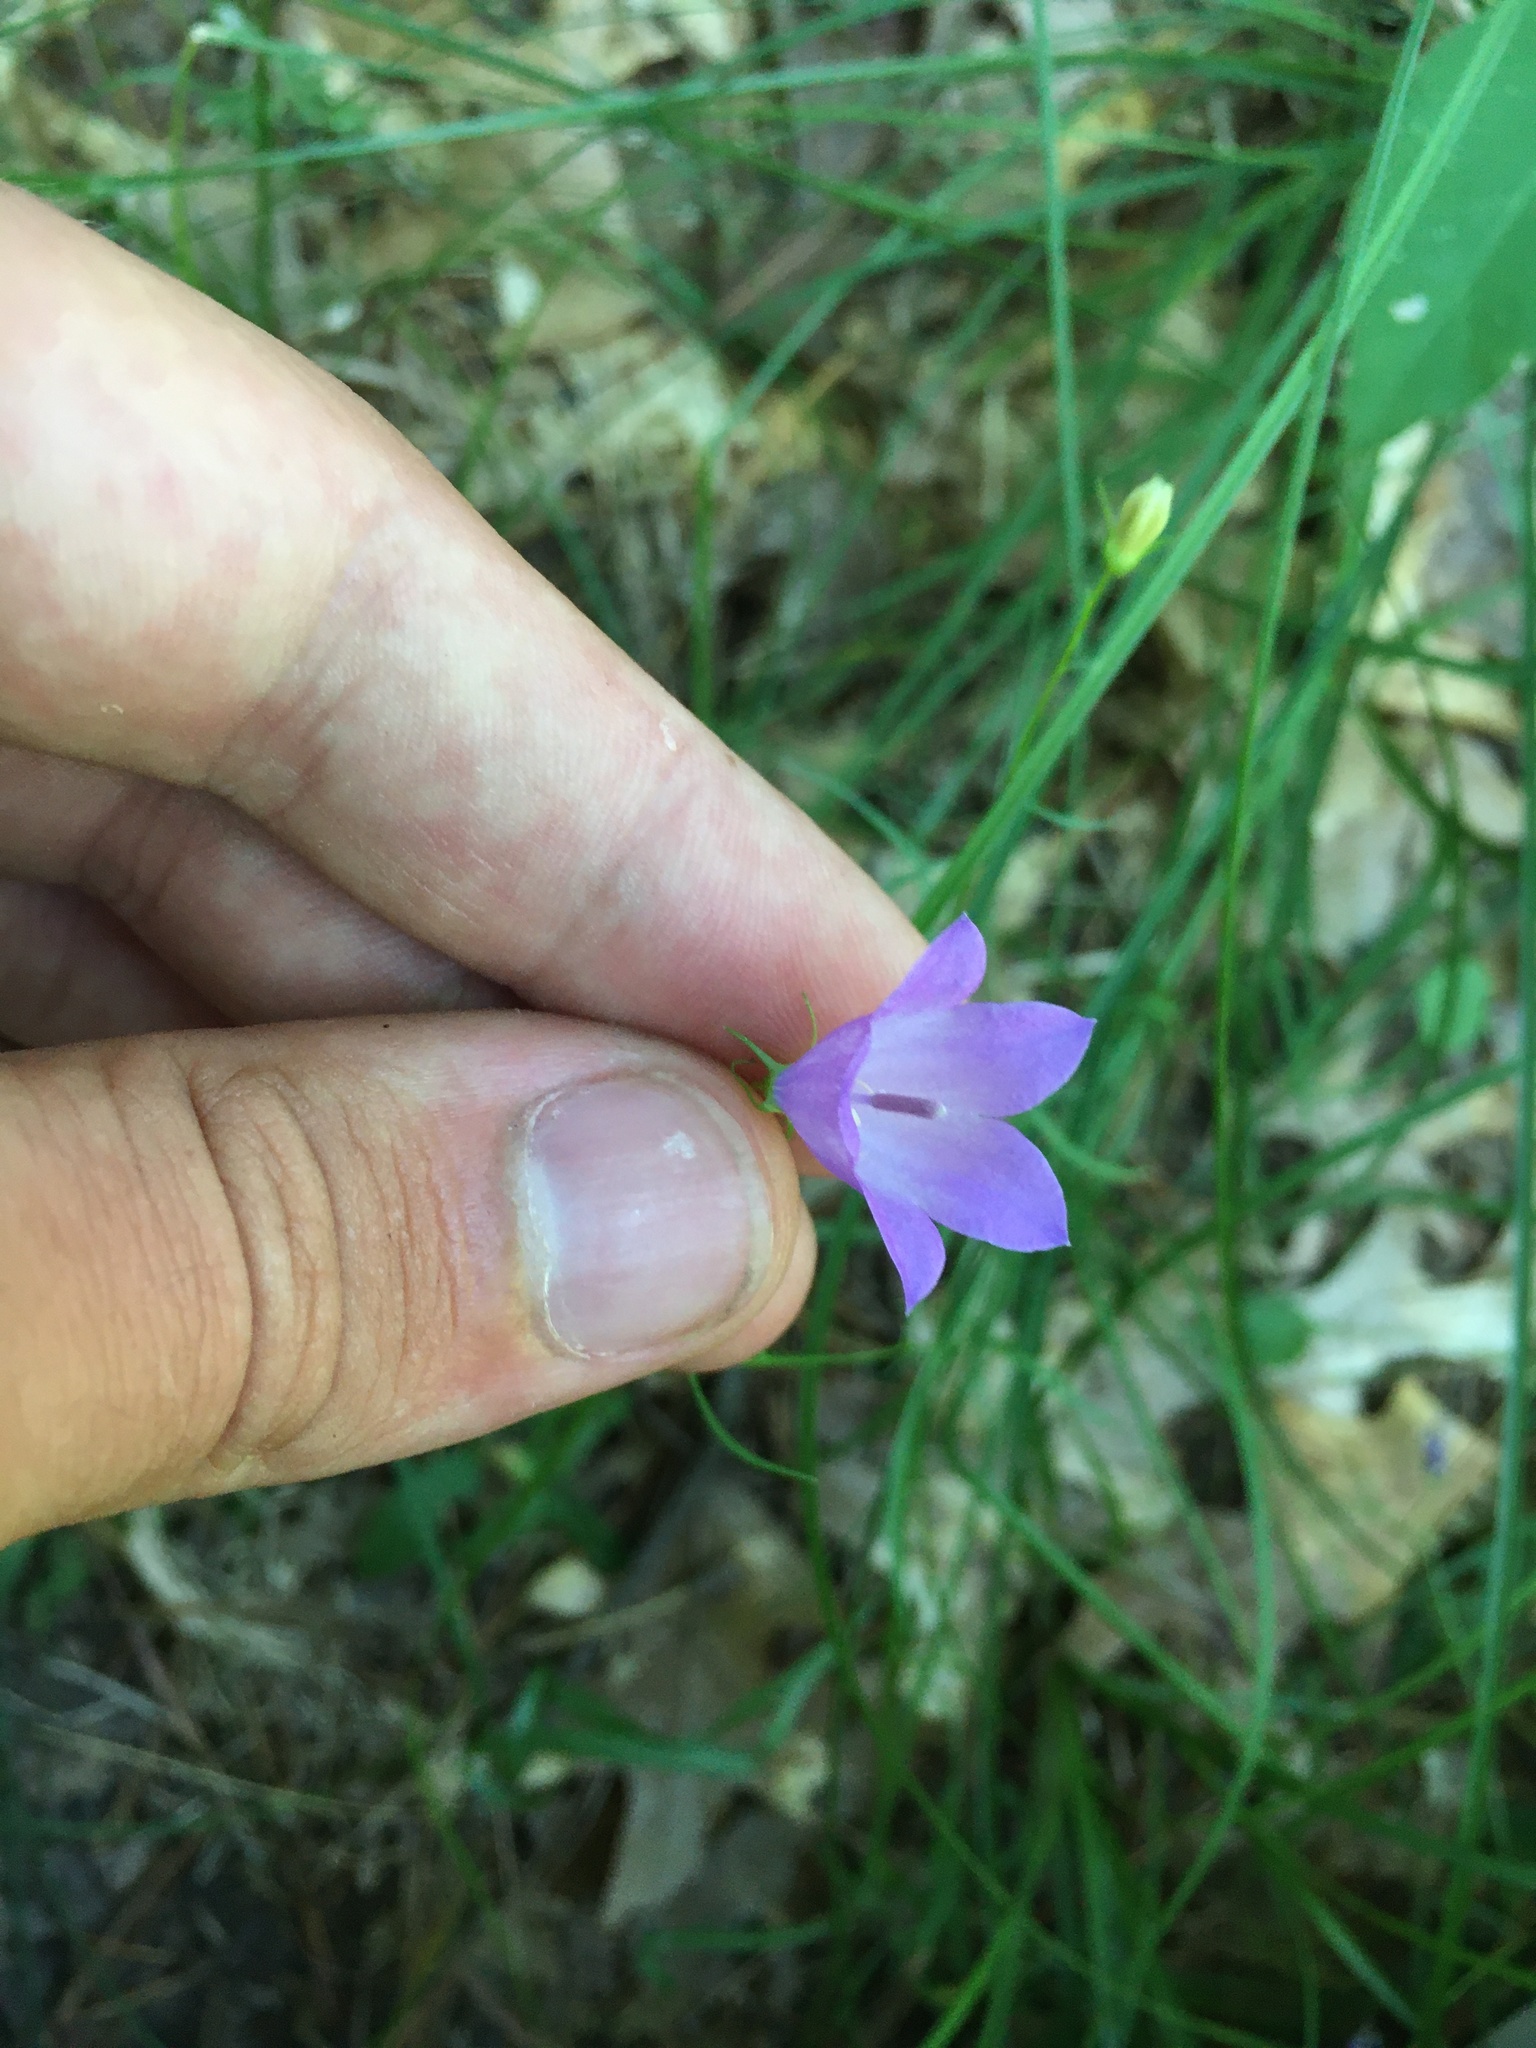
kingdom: Plantae
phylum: Tracheophyta
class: Magnoliopsida
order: Asterales
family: Campanulaceae
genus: Campanula
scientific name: Campanula intercedens
